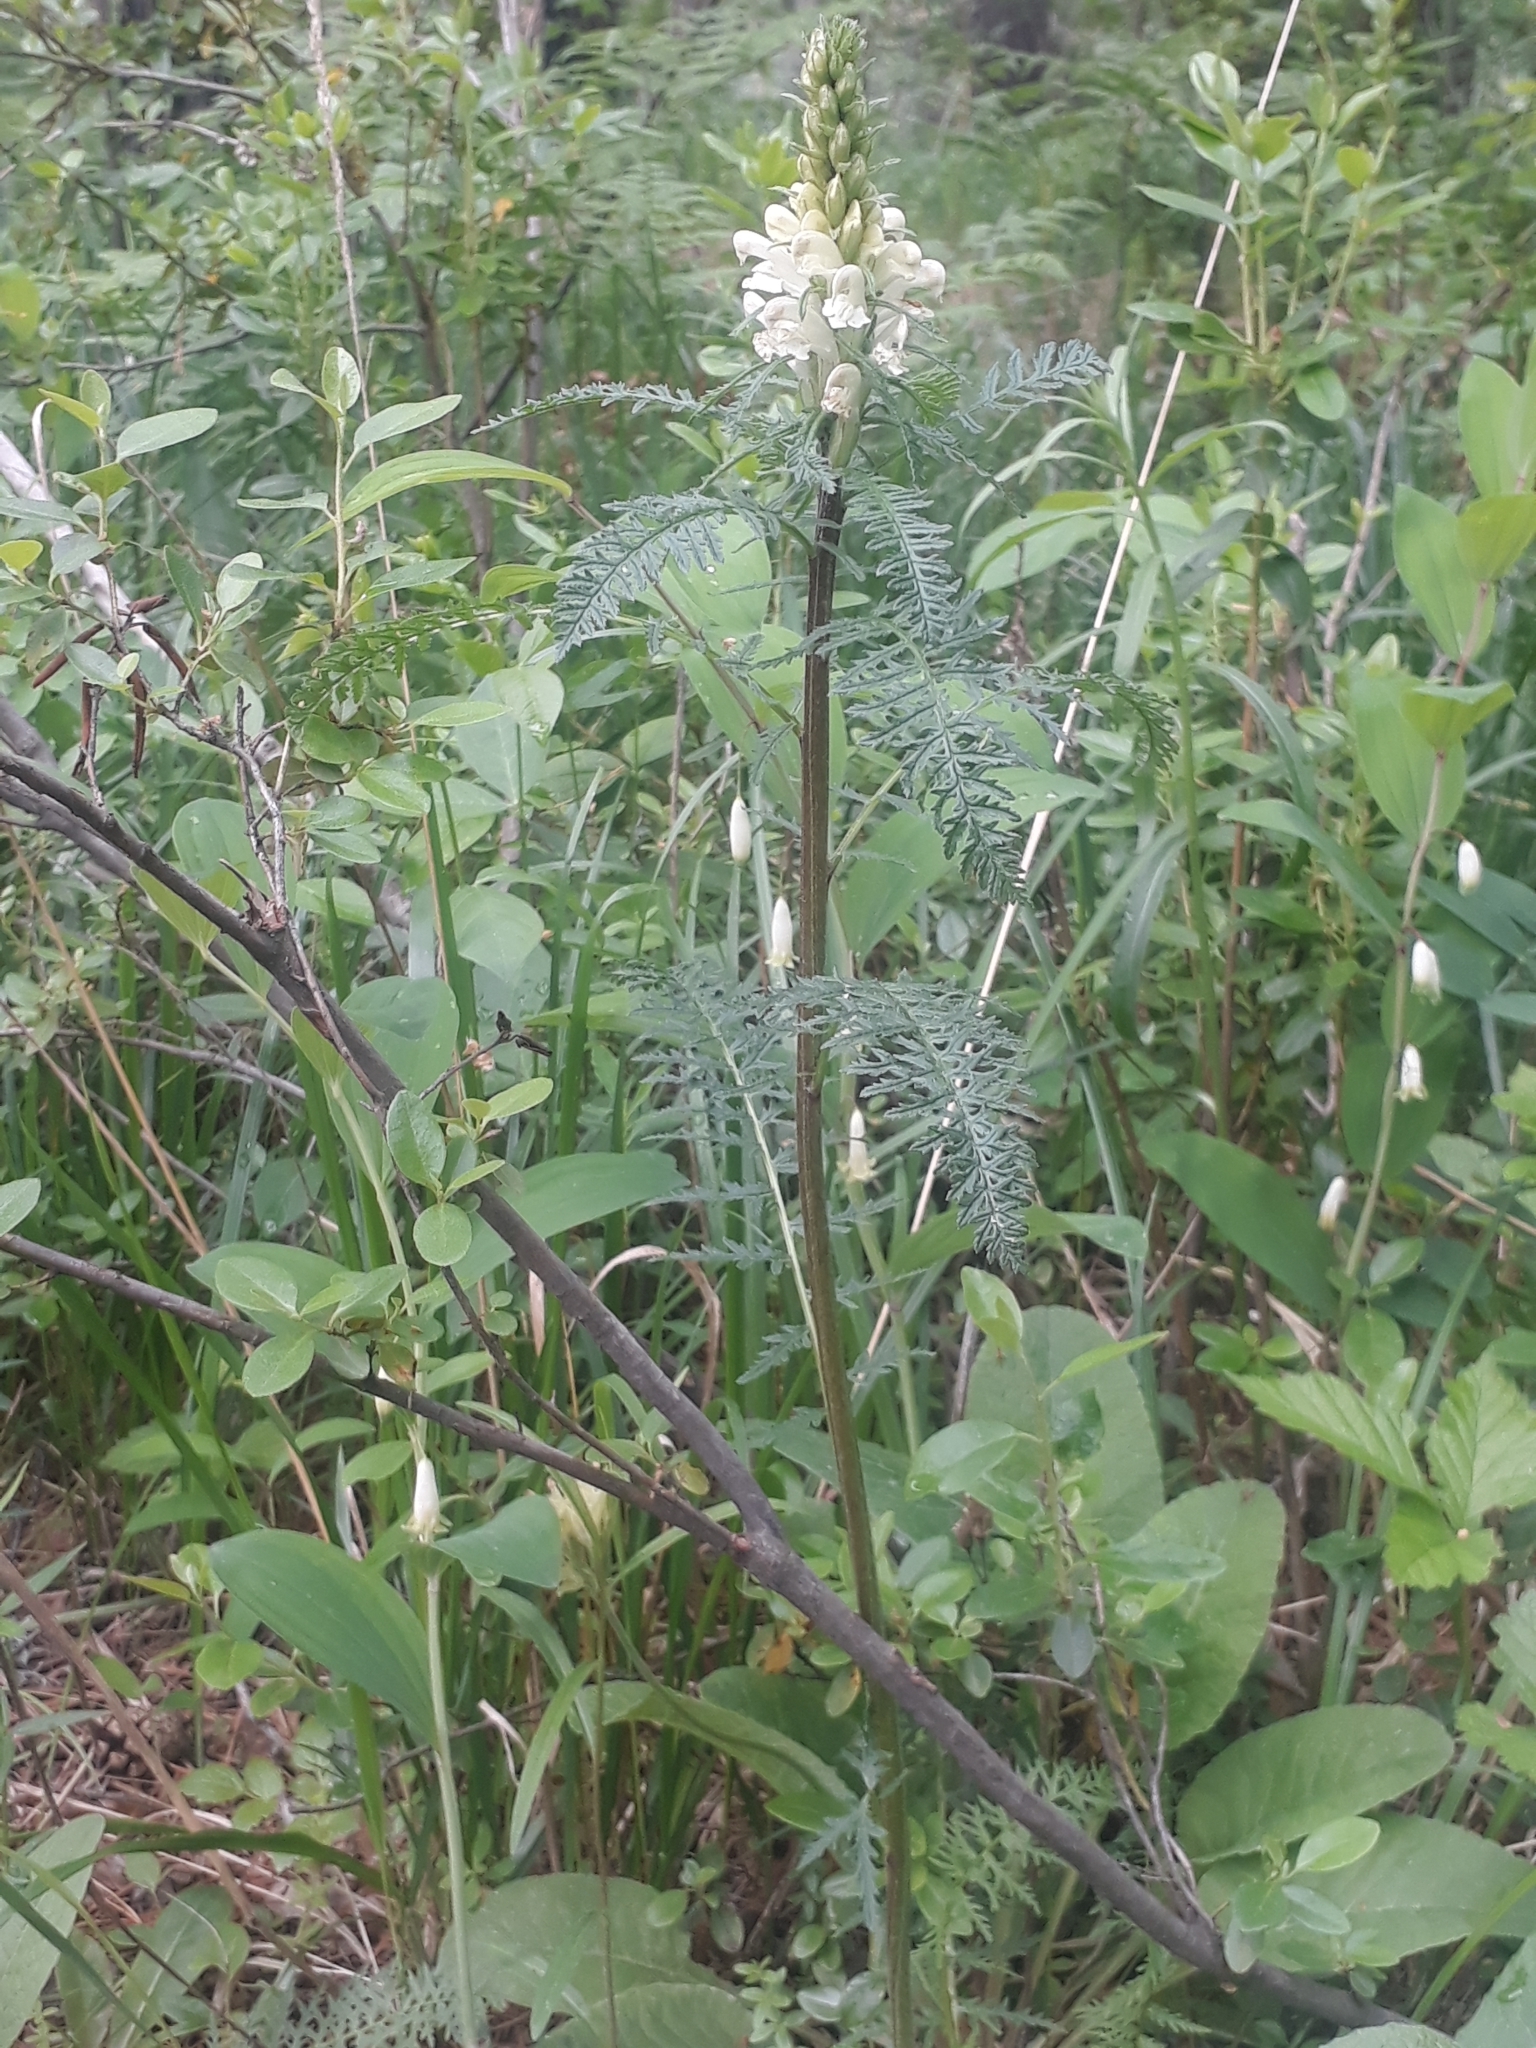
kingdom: Plantae
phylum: Tracheophyta
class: Magnoliopsida
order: Lamiales
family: Orobanchaceae
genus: Pedicularis
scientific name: Pedicularis sibirica
